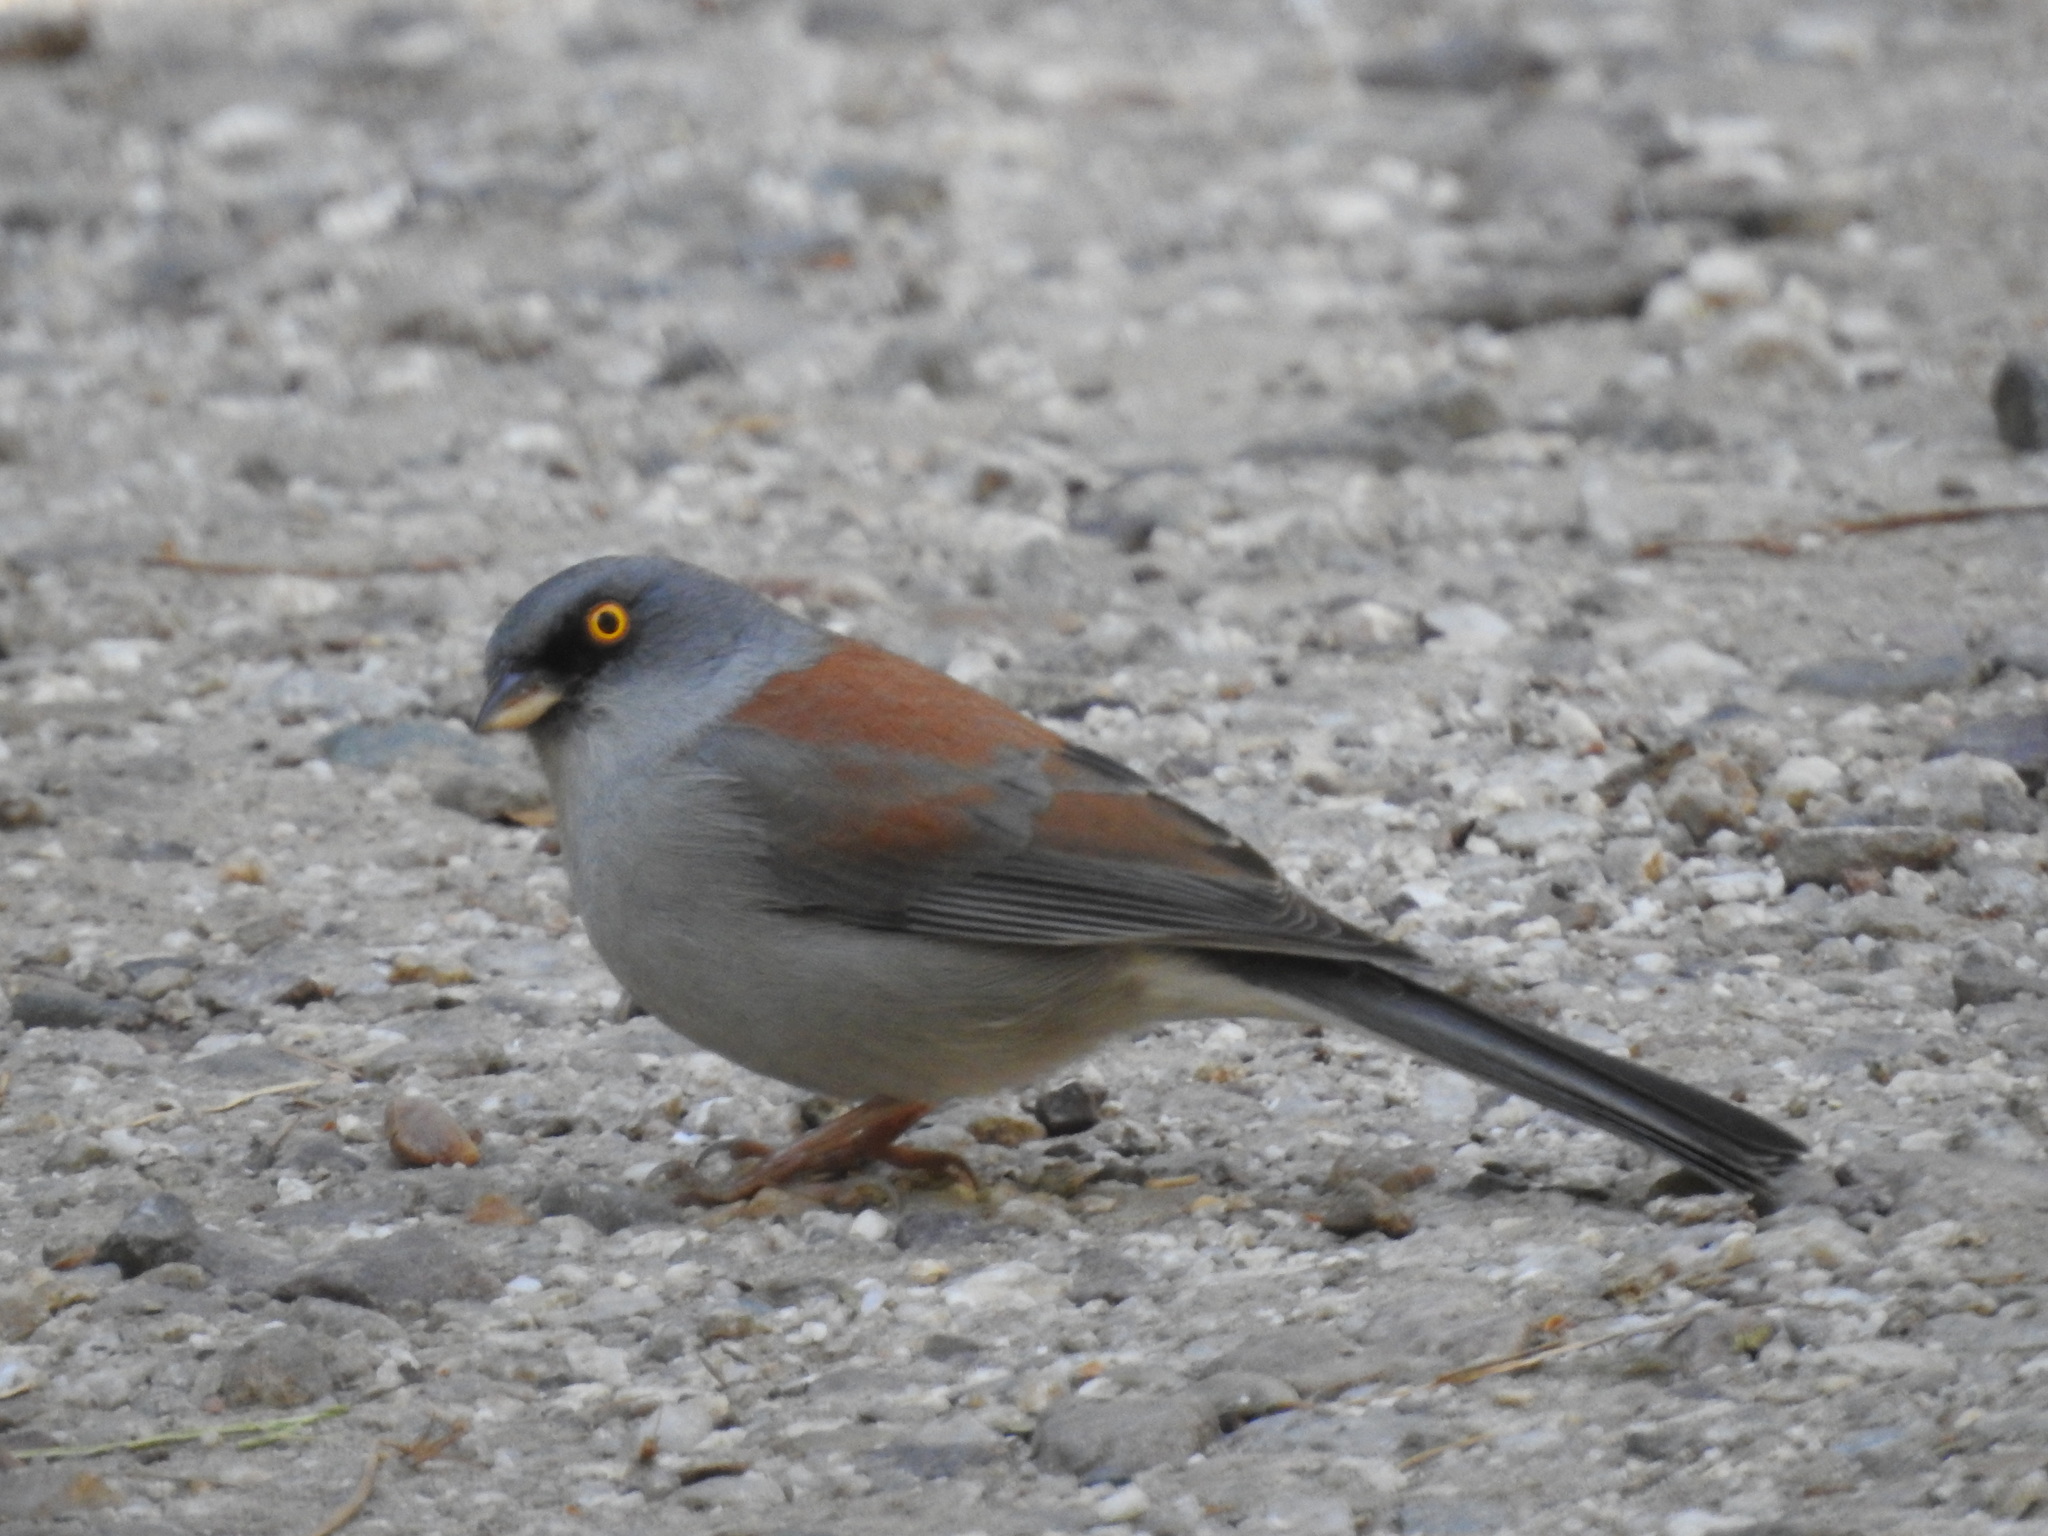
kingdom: Animalia
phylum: Chordata
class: Aves
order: Passeriformes
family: Passerellidae
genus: Junco
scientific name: Junco phaeonotus
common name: Yellow-eyed junco
